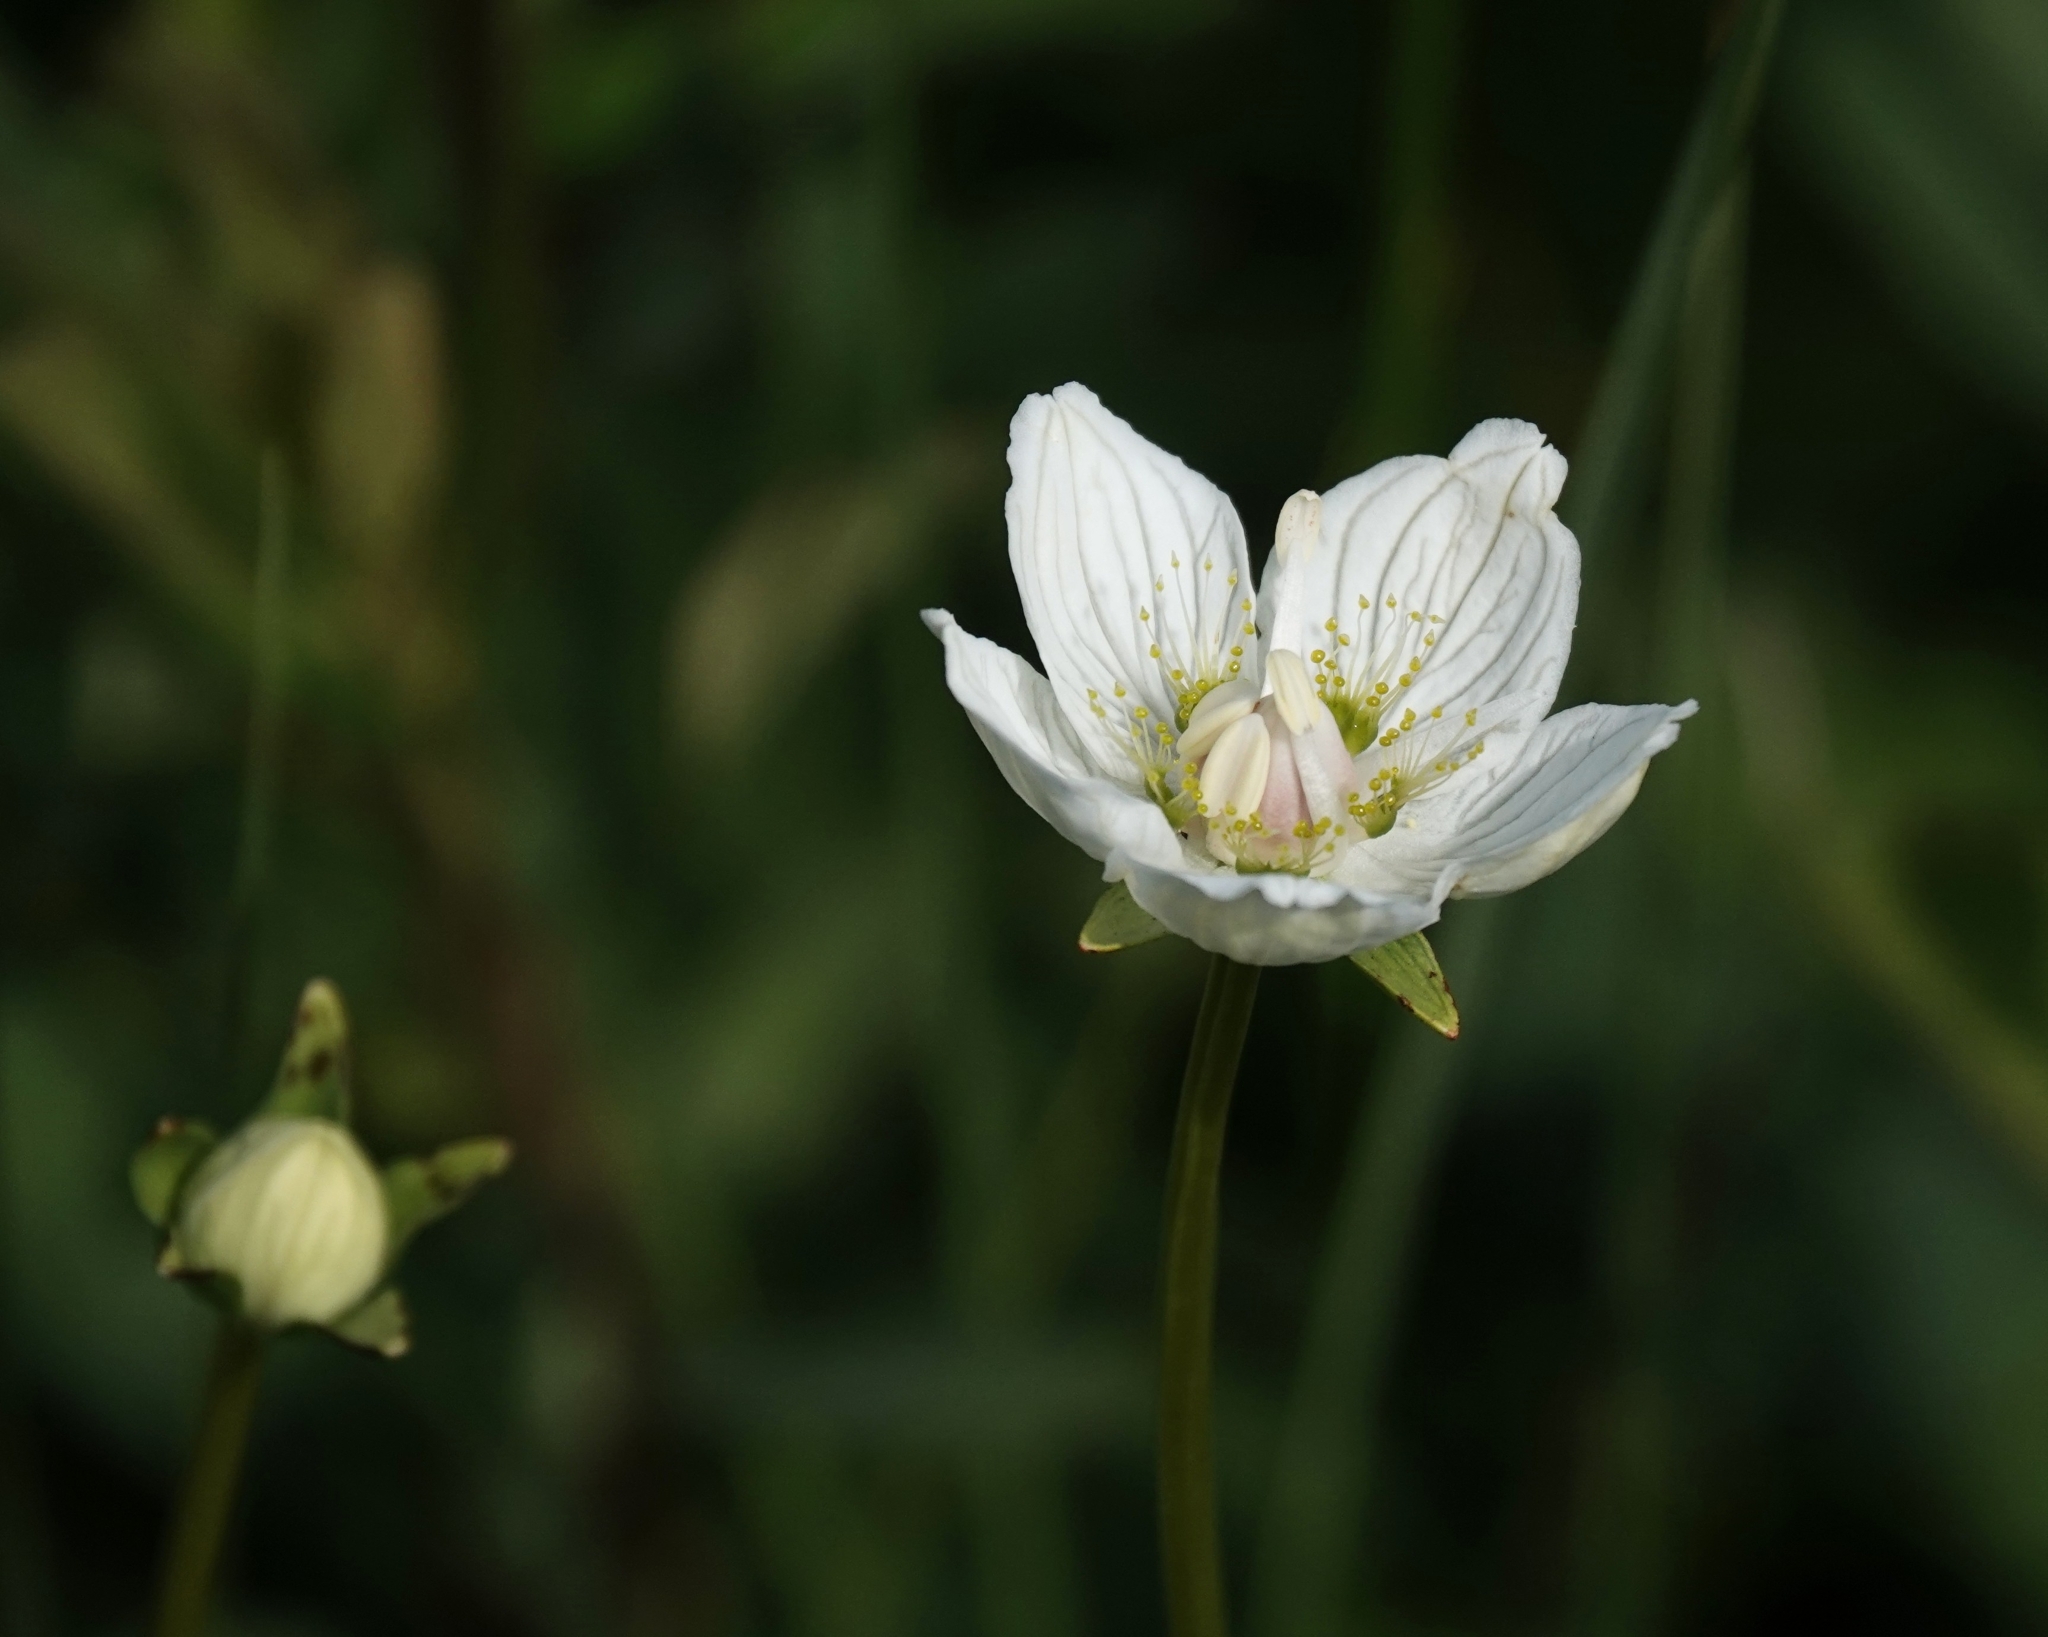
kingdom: Plantae
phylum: Tracheophyta
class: Magnoliopsida
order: Celastrales
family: Parnassiaceae
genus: Parnassia
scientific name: Parnassia palustris
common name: Grass-of-parnassus
